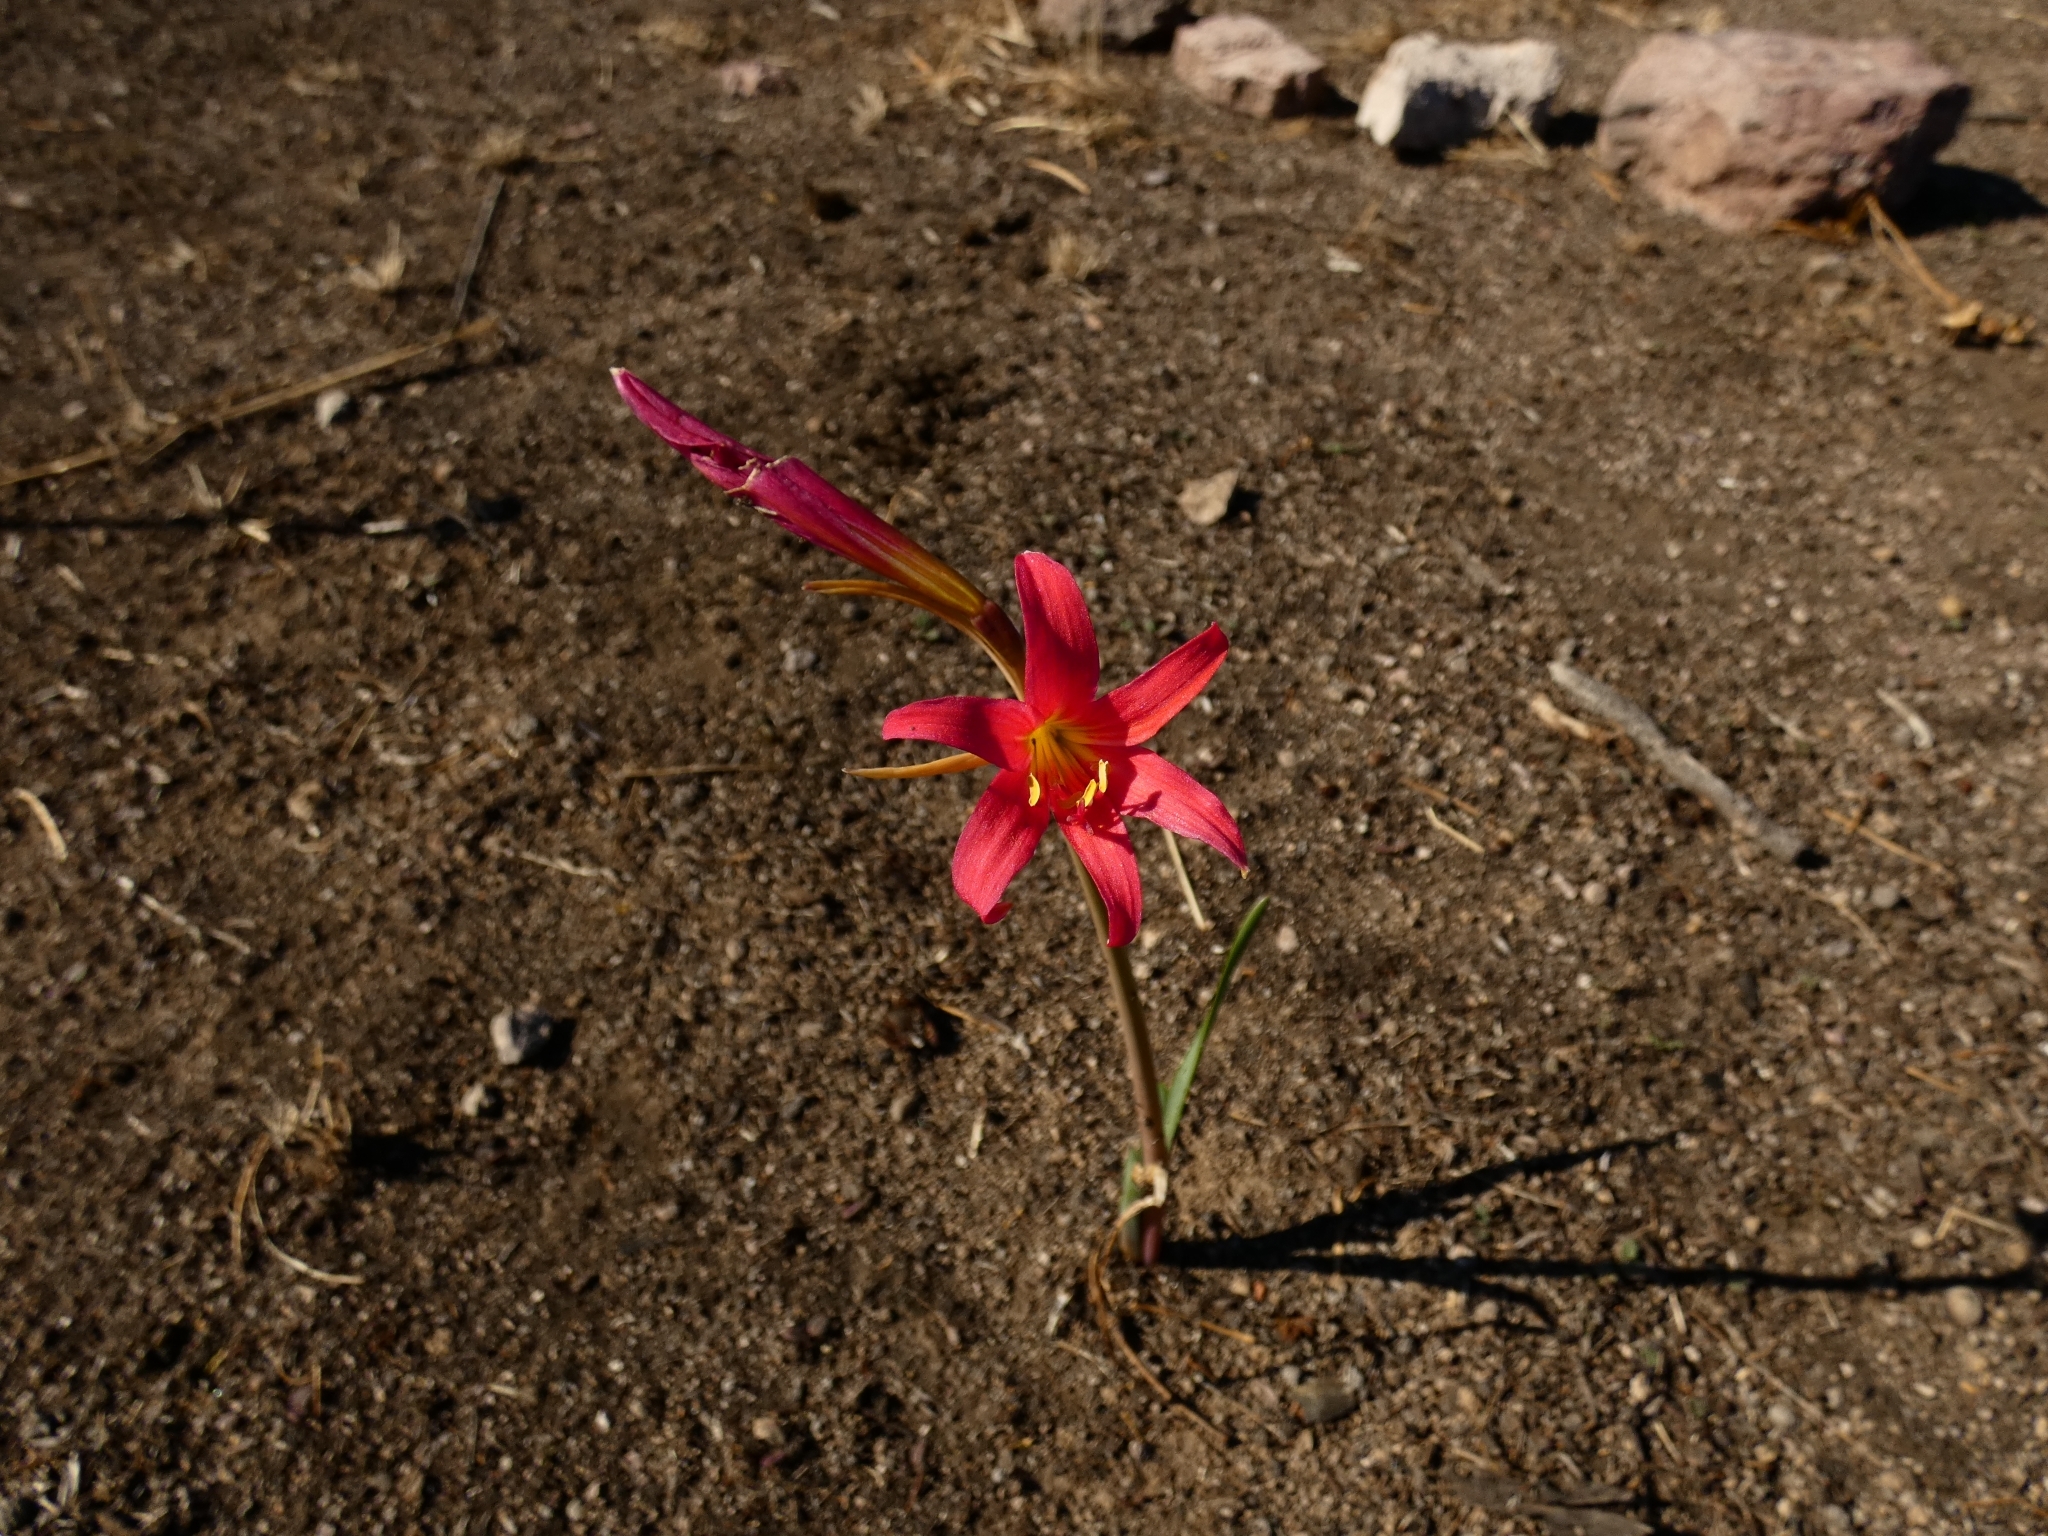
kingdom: Plantae
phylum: Tracheophyta
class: Liliopsida
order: Asparagales
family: Amaryllidaceae
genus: Zephyranthes
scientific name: Zephyranthes monantha
